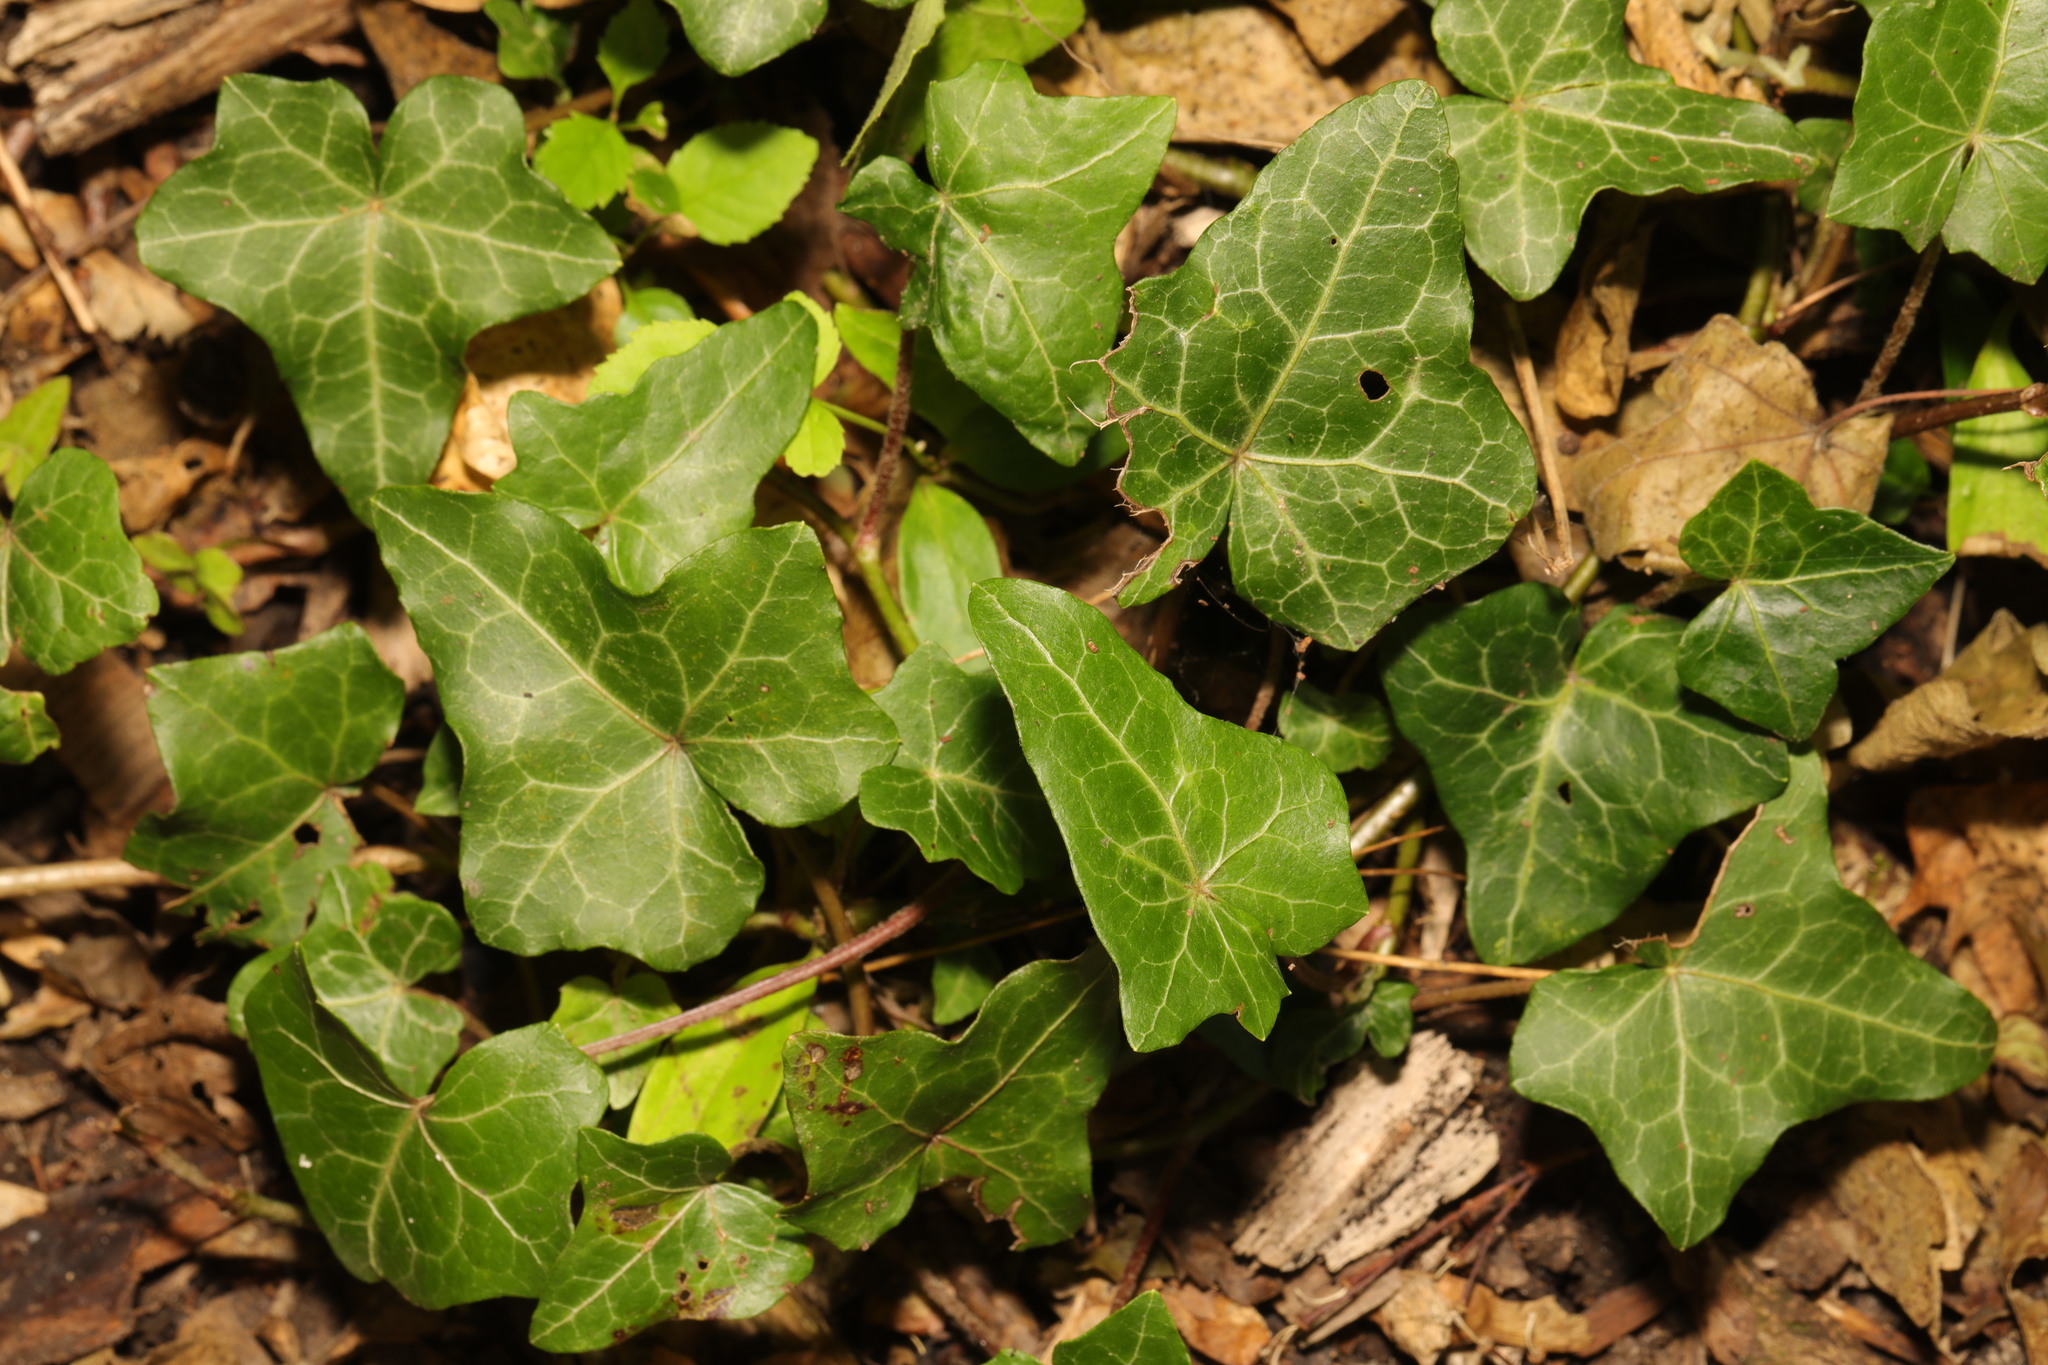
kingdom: Plantae
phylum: Tracheophyta
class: Magnoliopsida
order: Apiales
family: Araliaceae
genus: Hedera
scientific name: Hedera helix
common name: Ivy
